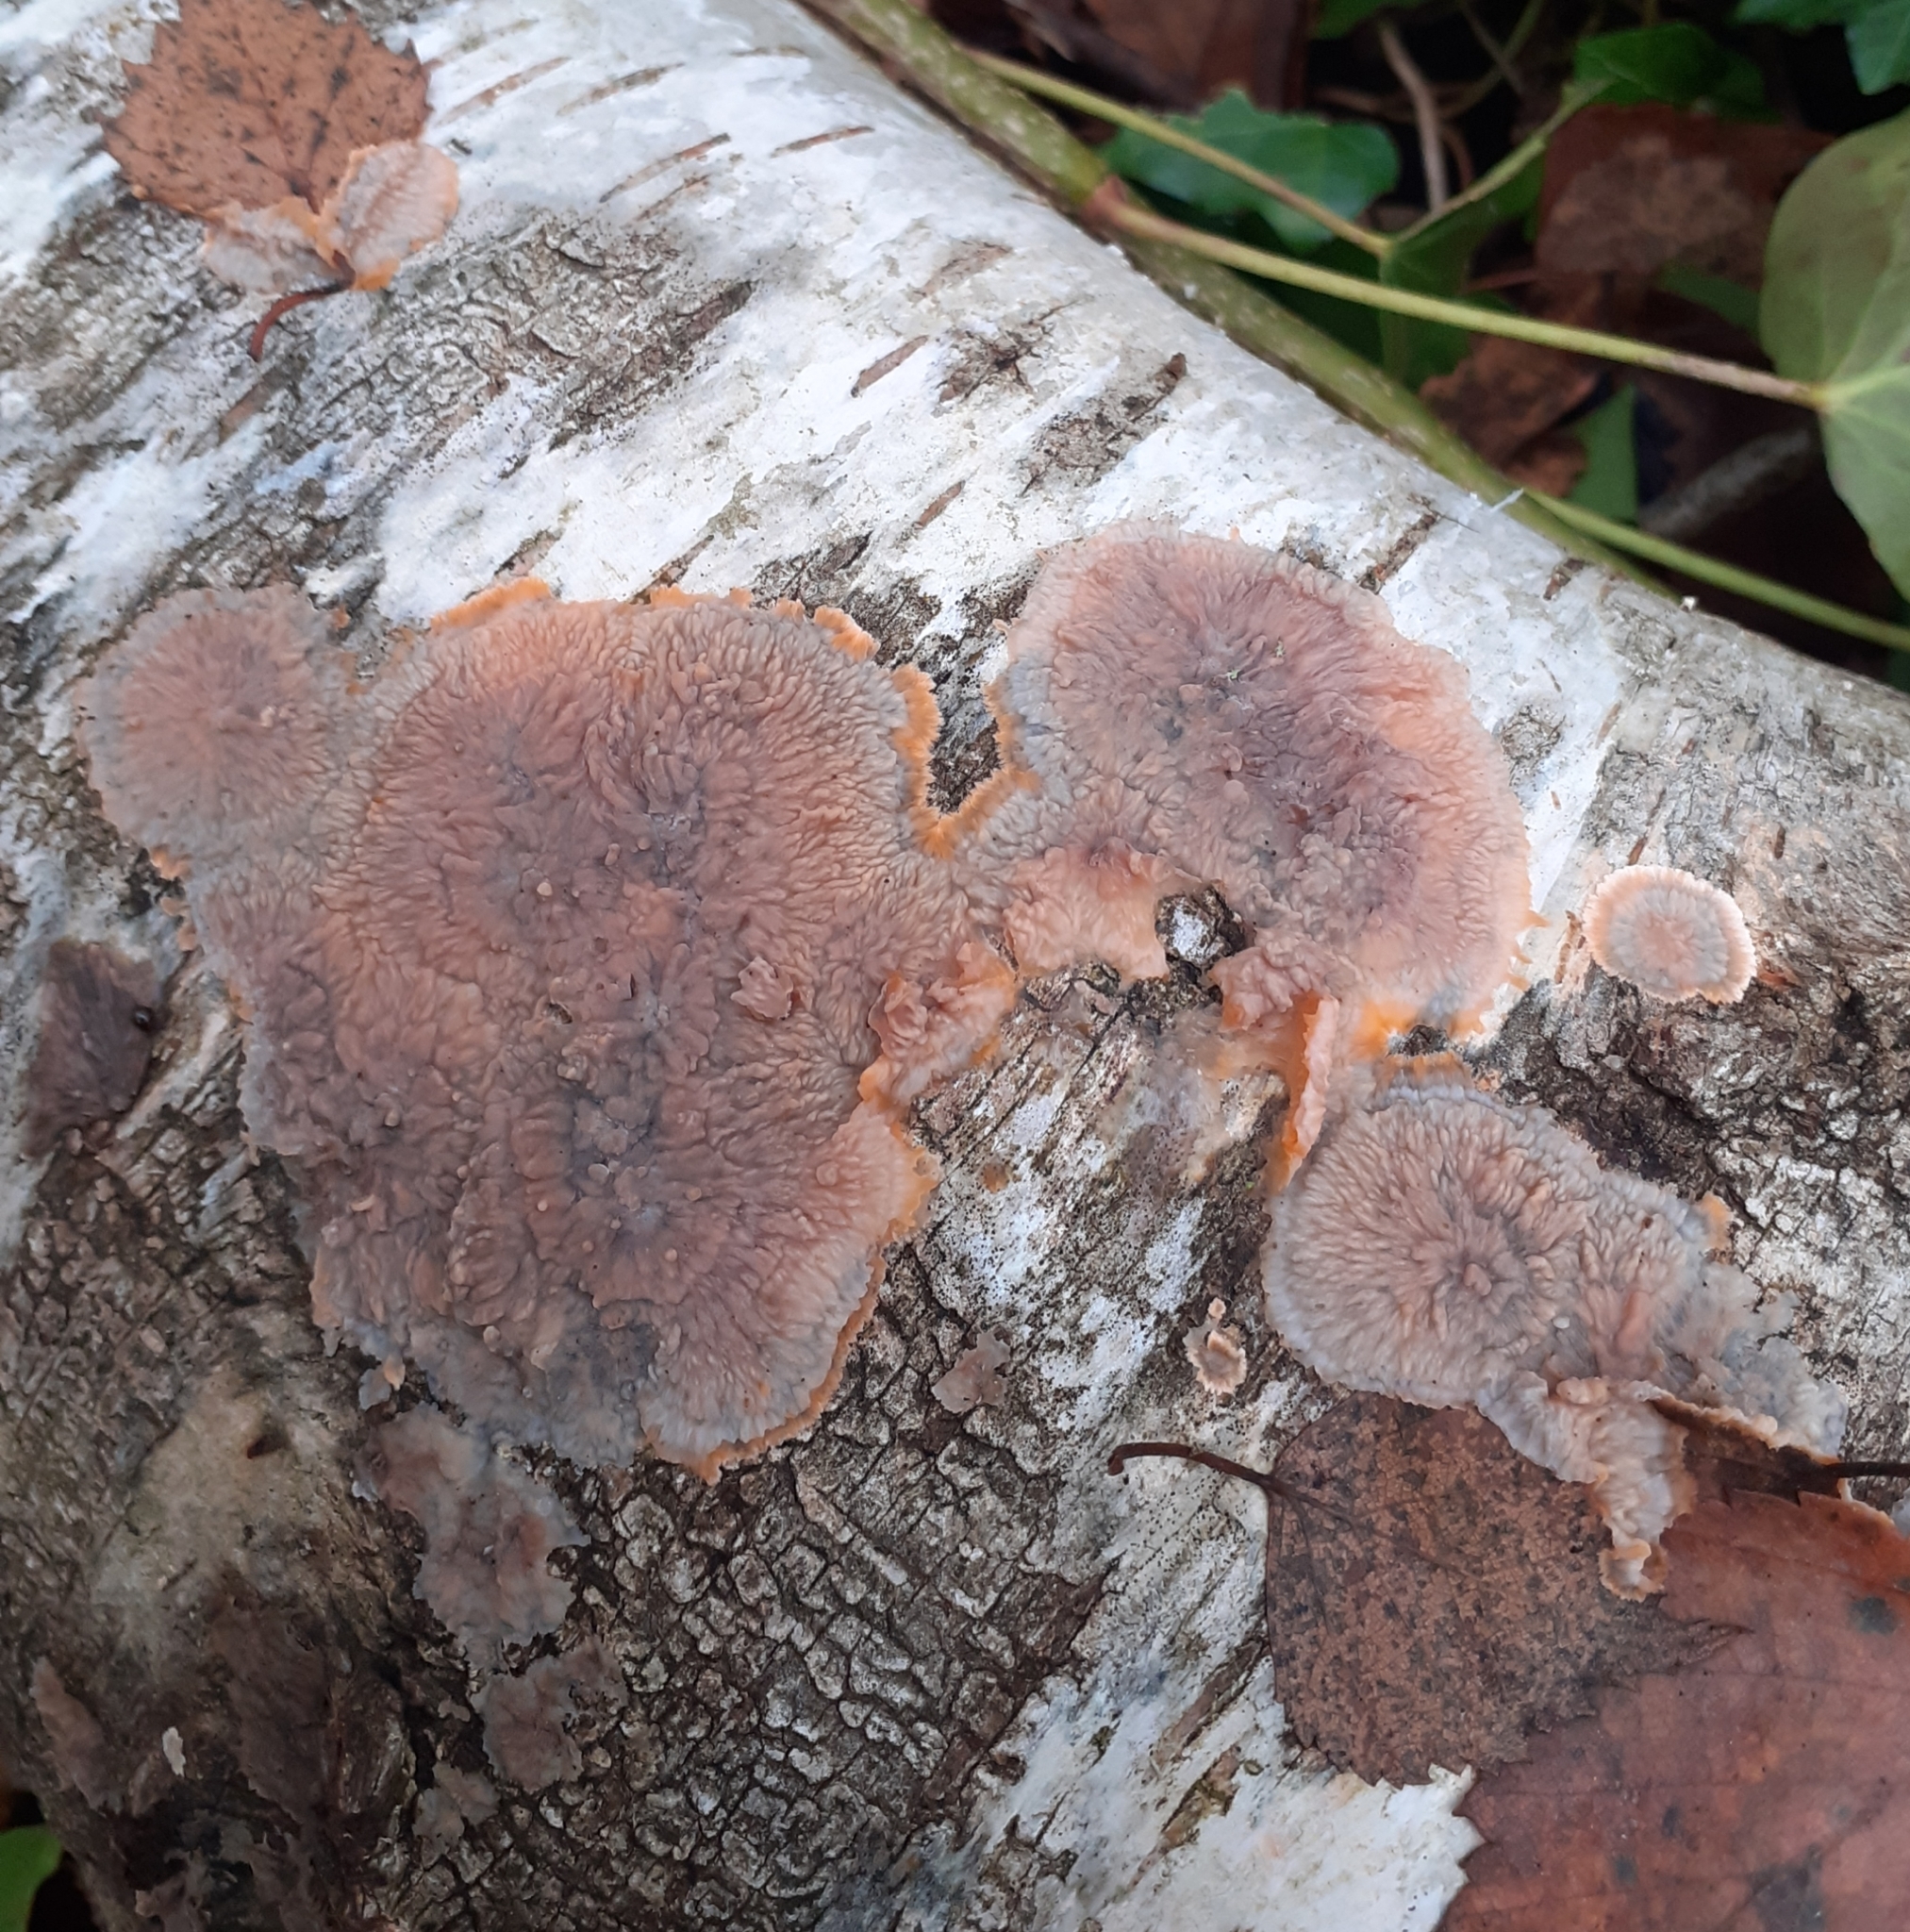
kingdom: Fungi
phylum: Basidiomycota
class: Agaricomycetes
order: Polyporales
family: Meruliaceae
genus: Phlebia
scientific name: Phlebia radiata
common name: Wrinkled crust
